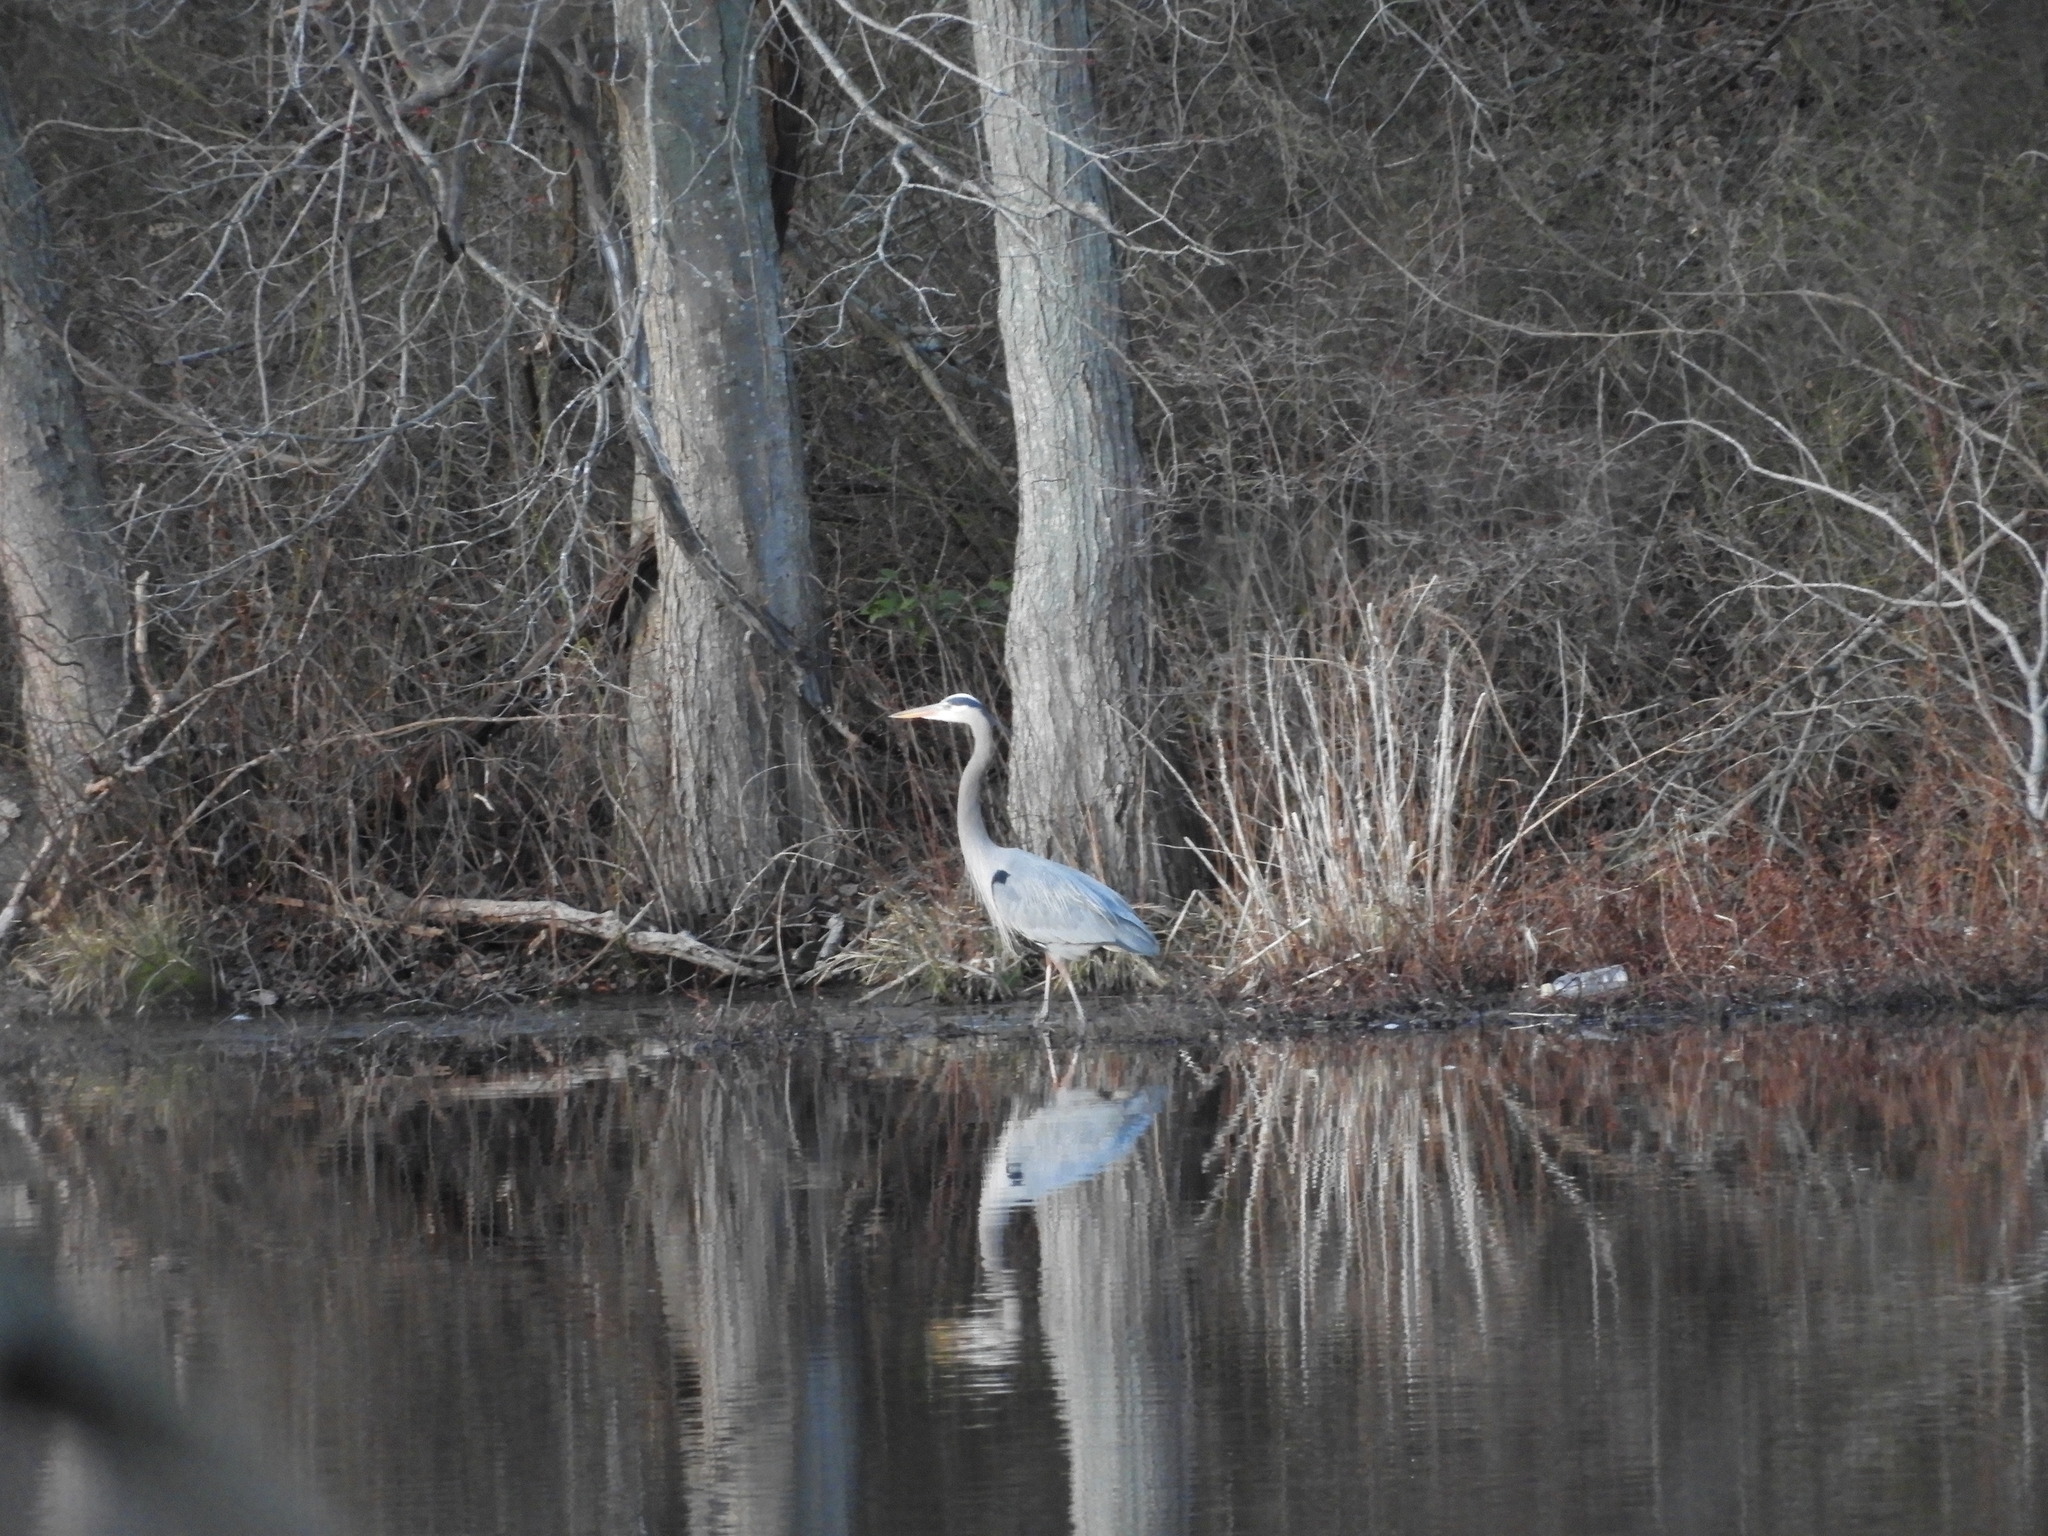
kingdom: Animalia
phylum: Chordata
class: Aves
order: Pelecaniformes
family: Ardeidae
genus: Ardea
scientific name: Ardea herodias
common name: Great blue heron
